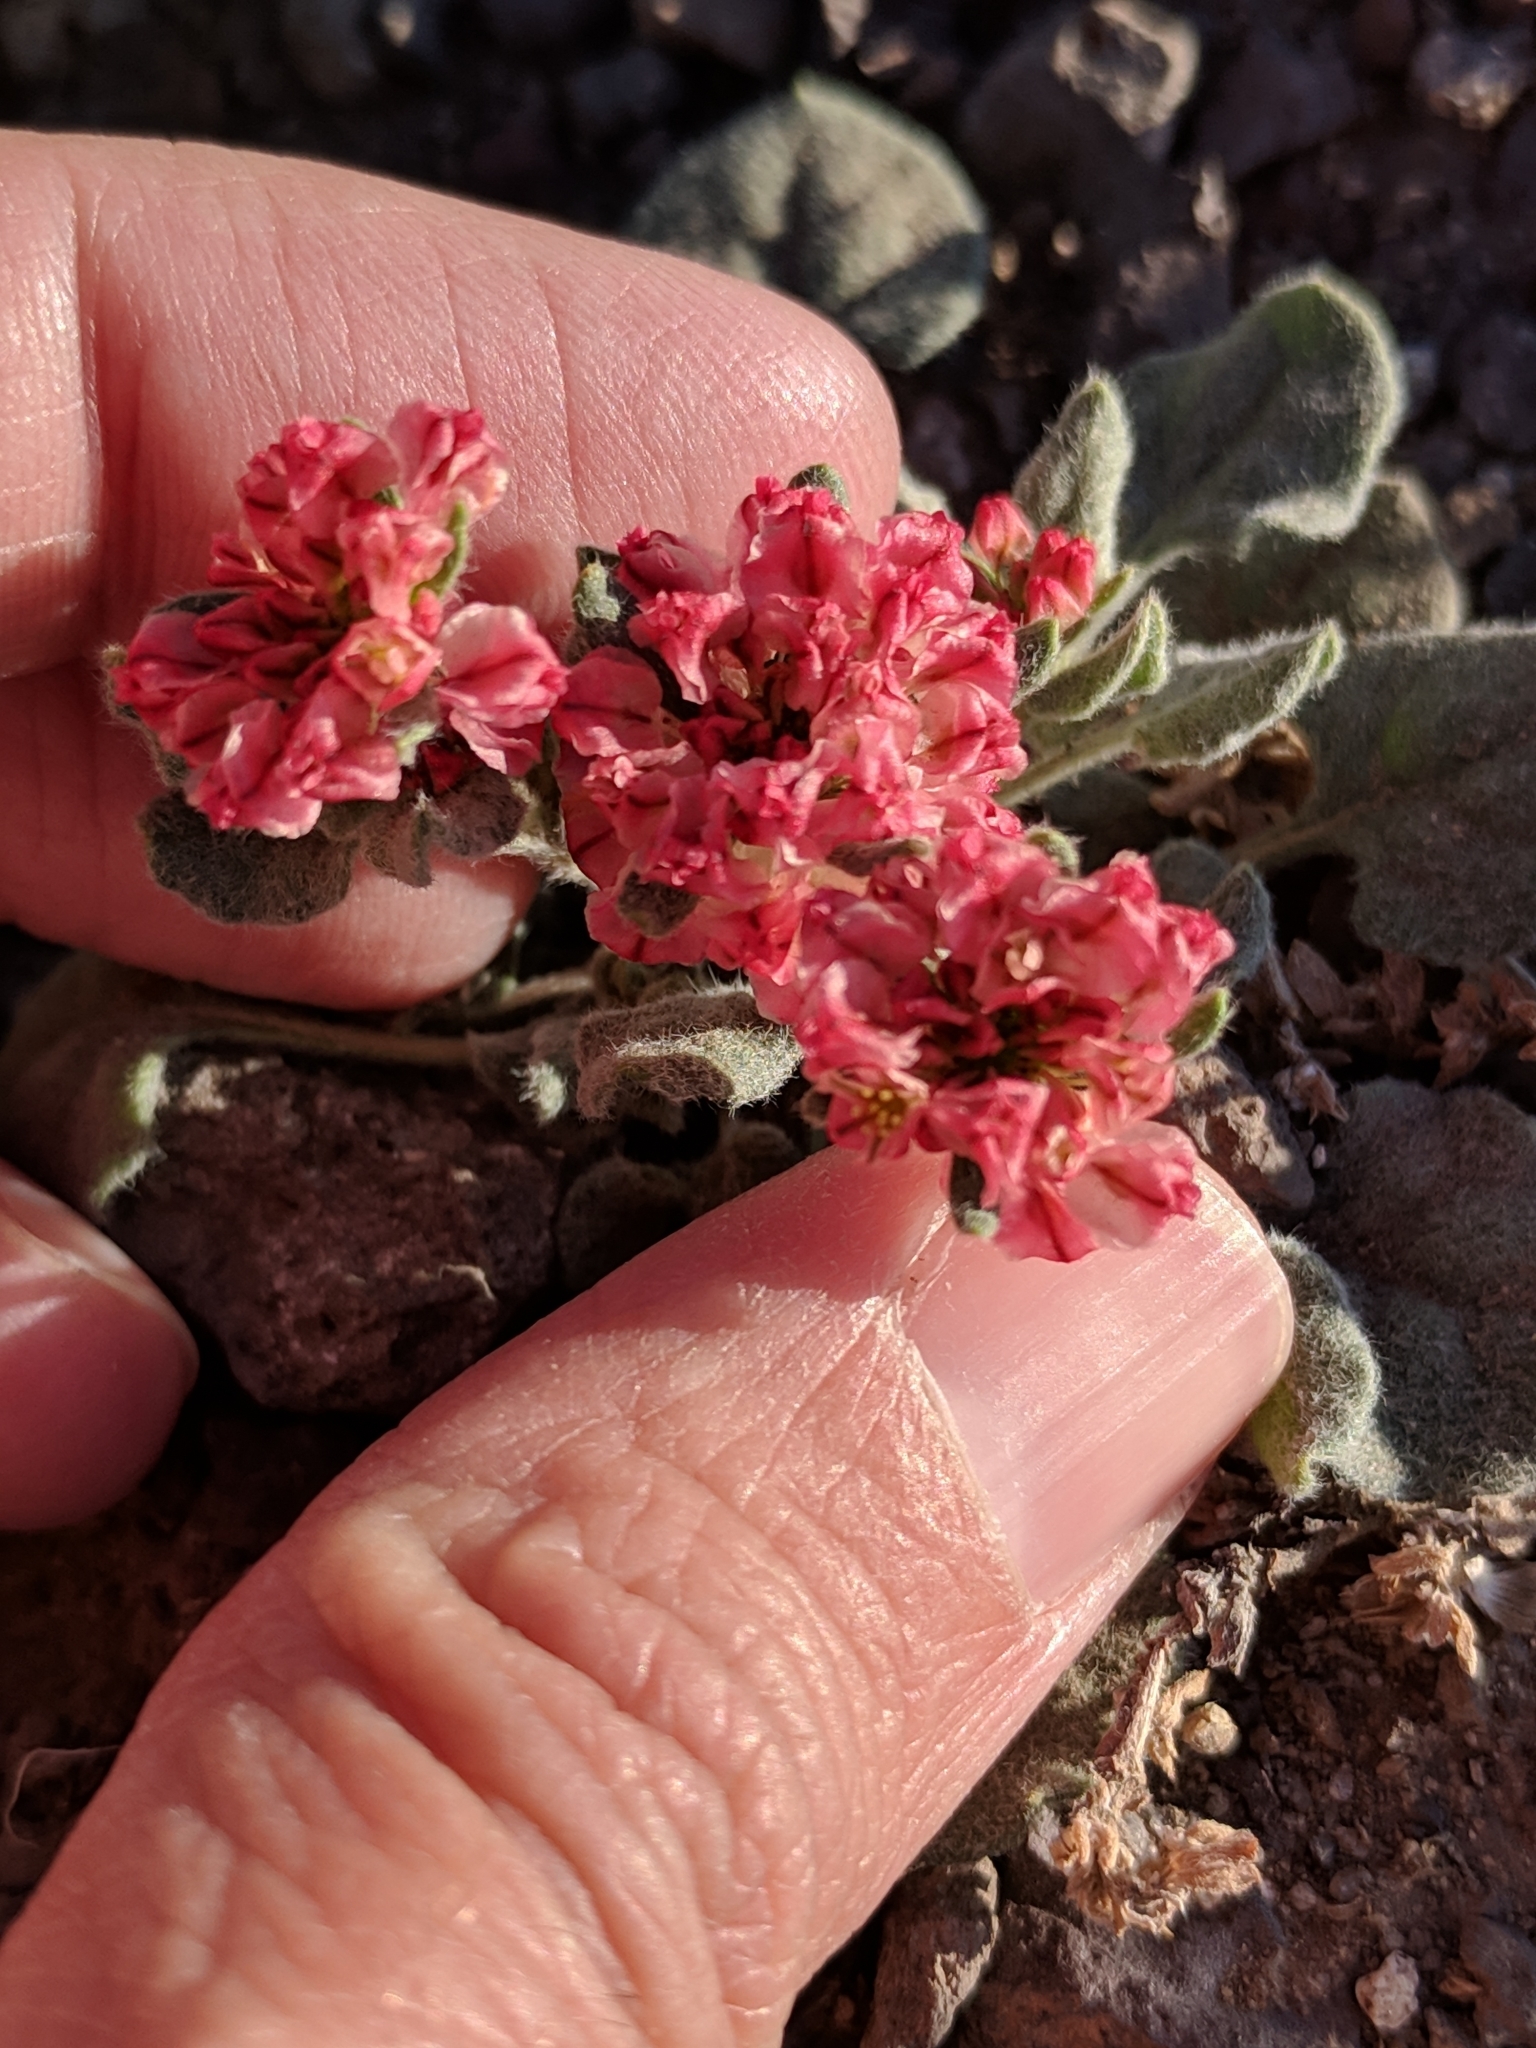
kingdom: Plantae
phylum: Tracheophyta
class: Magnoliopsida
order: Caryophyllales
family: Polygonaceae
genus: Eriogonum
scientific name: Eriogonum abertianum
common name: Abert's wild buckwheat
